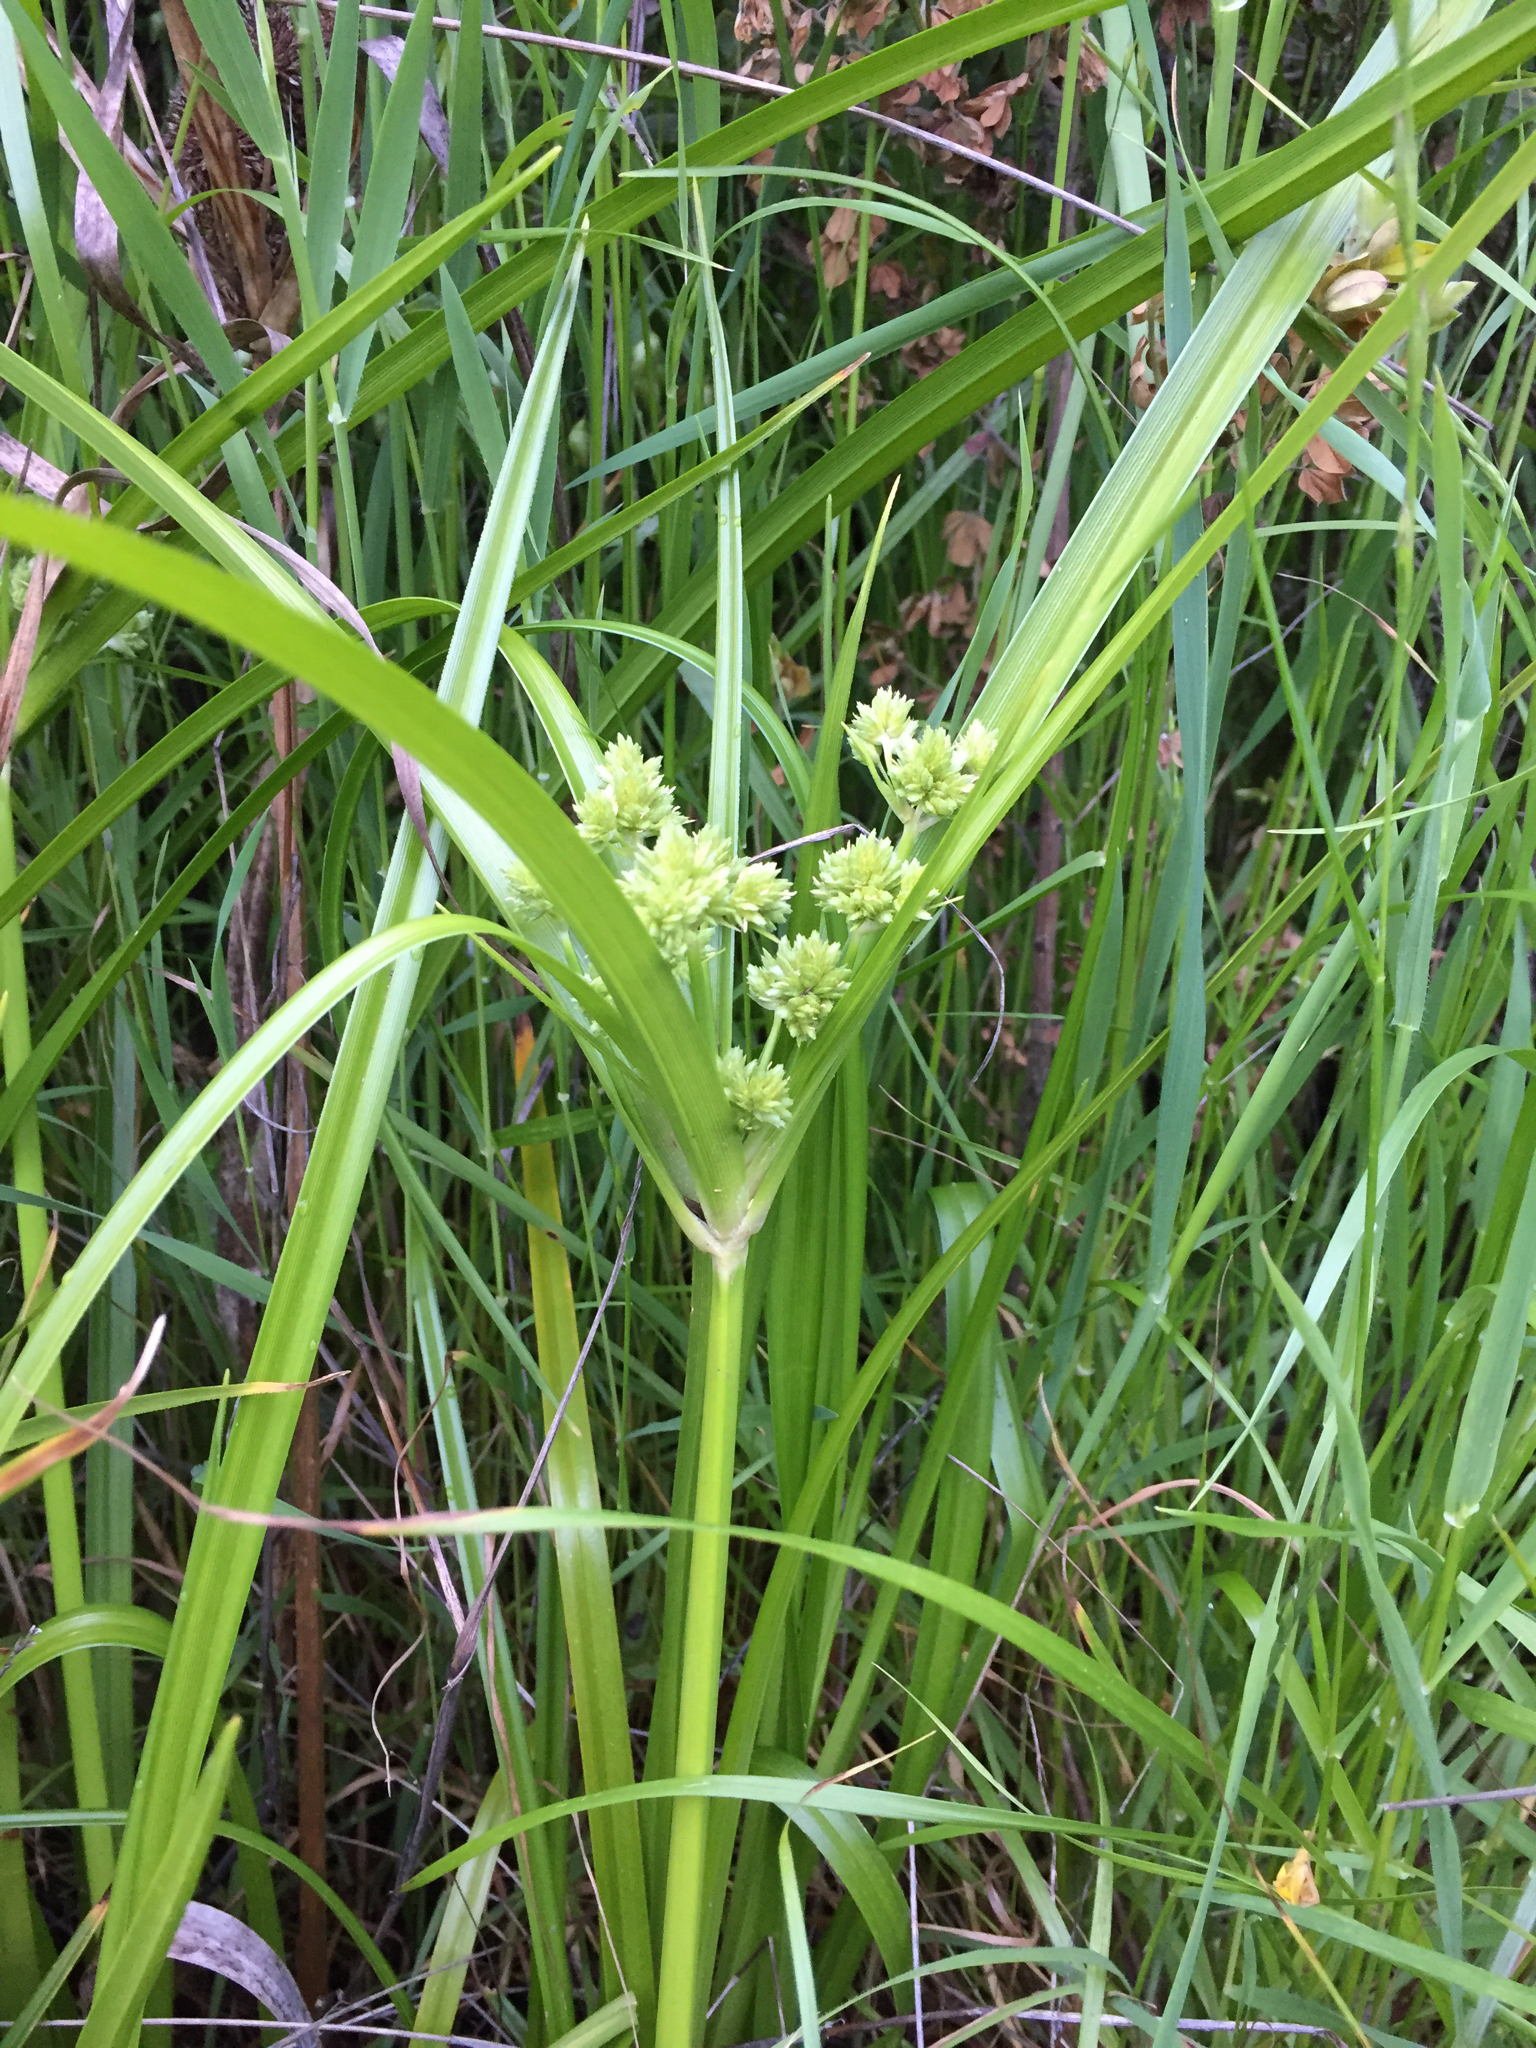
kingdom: Plantae
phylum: Tracheophyta
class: Liliopsida
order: Poales
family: Cyperaceae
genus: Cyperus
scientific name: Cyperus eragrostis
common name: Tall flatsedge
